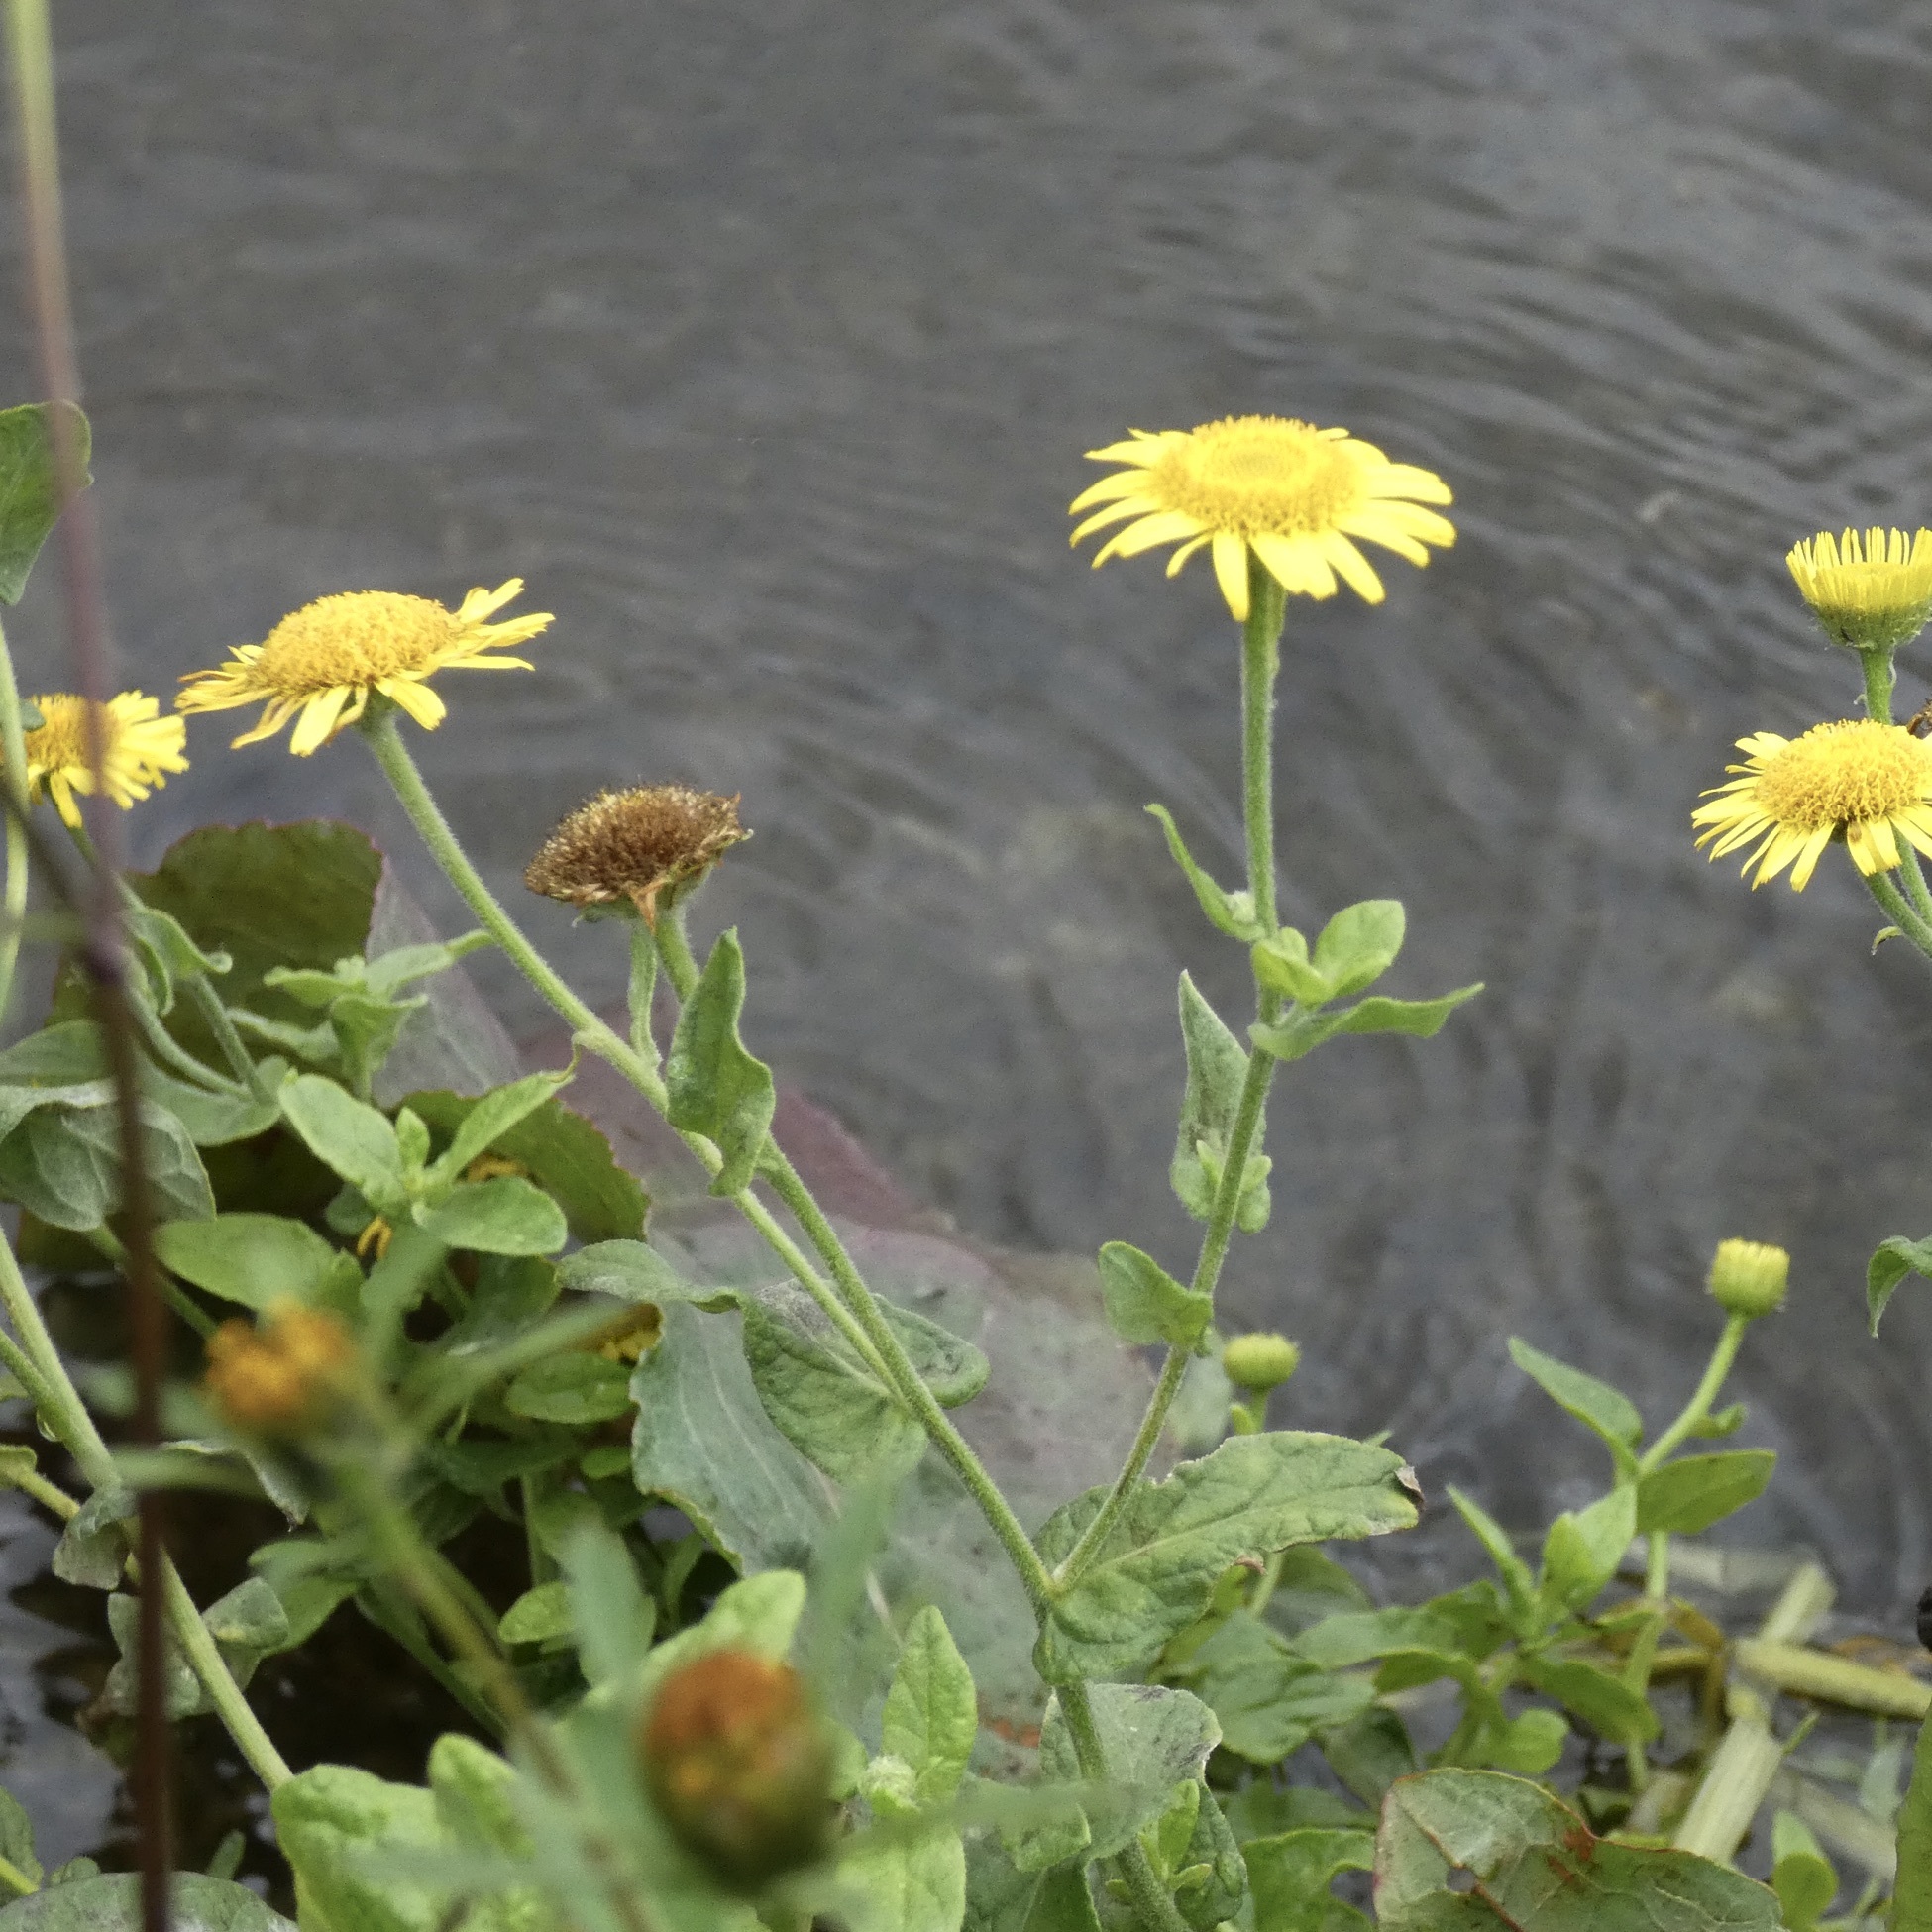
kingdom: Plantae
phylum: Tracheophyta
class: Magnoliopsida
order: Asterales
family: Asteraceae
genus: Pulicaria
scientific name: Pulicaria dysenterica
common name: Common fleabane
